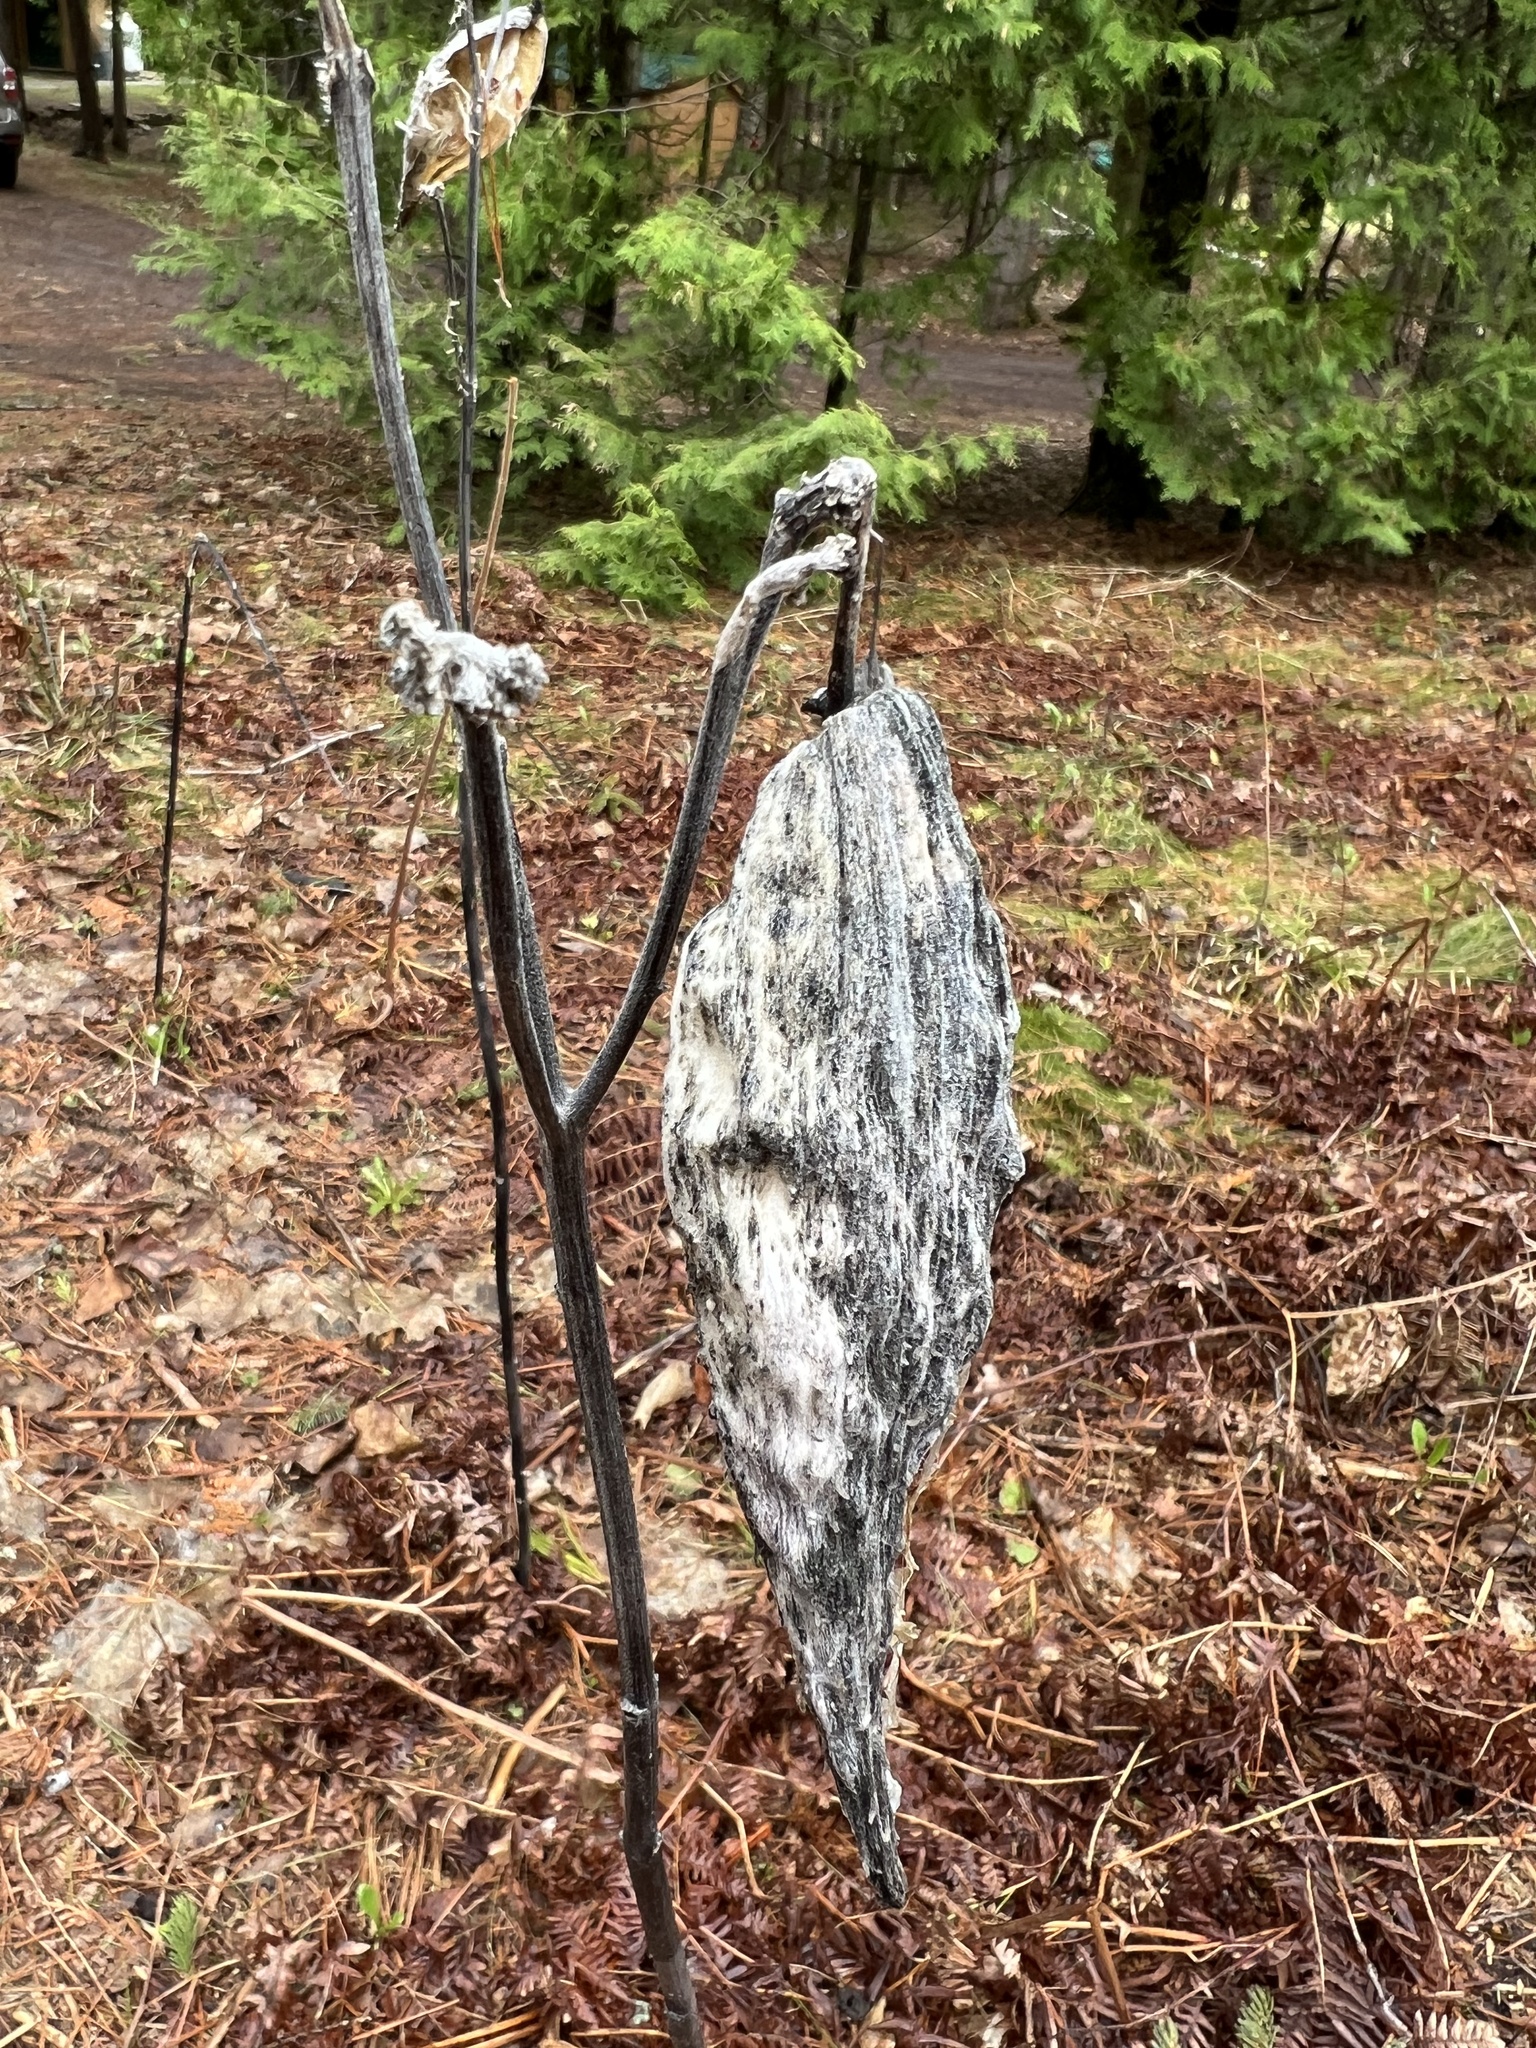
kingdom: Plantae
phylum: Tracheophyta
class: Magnoliopsida
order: Gentianales
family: Apocynaceae
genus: Asclepias
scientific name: Asclepias syriaca
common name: Common milkweed
